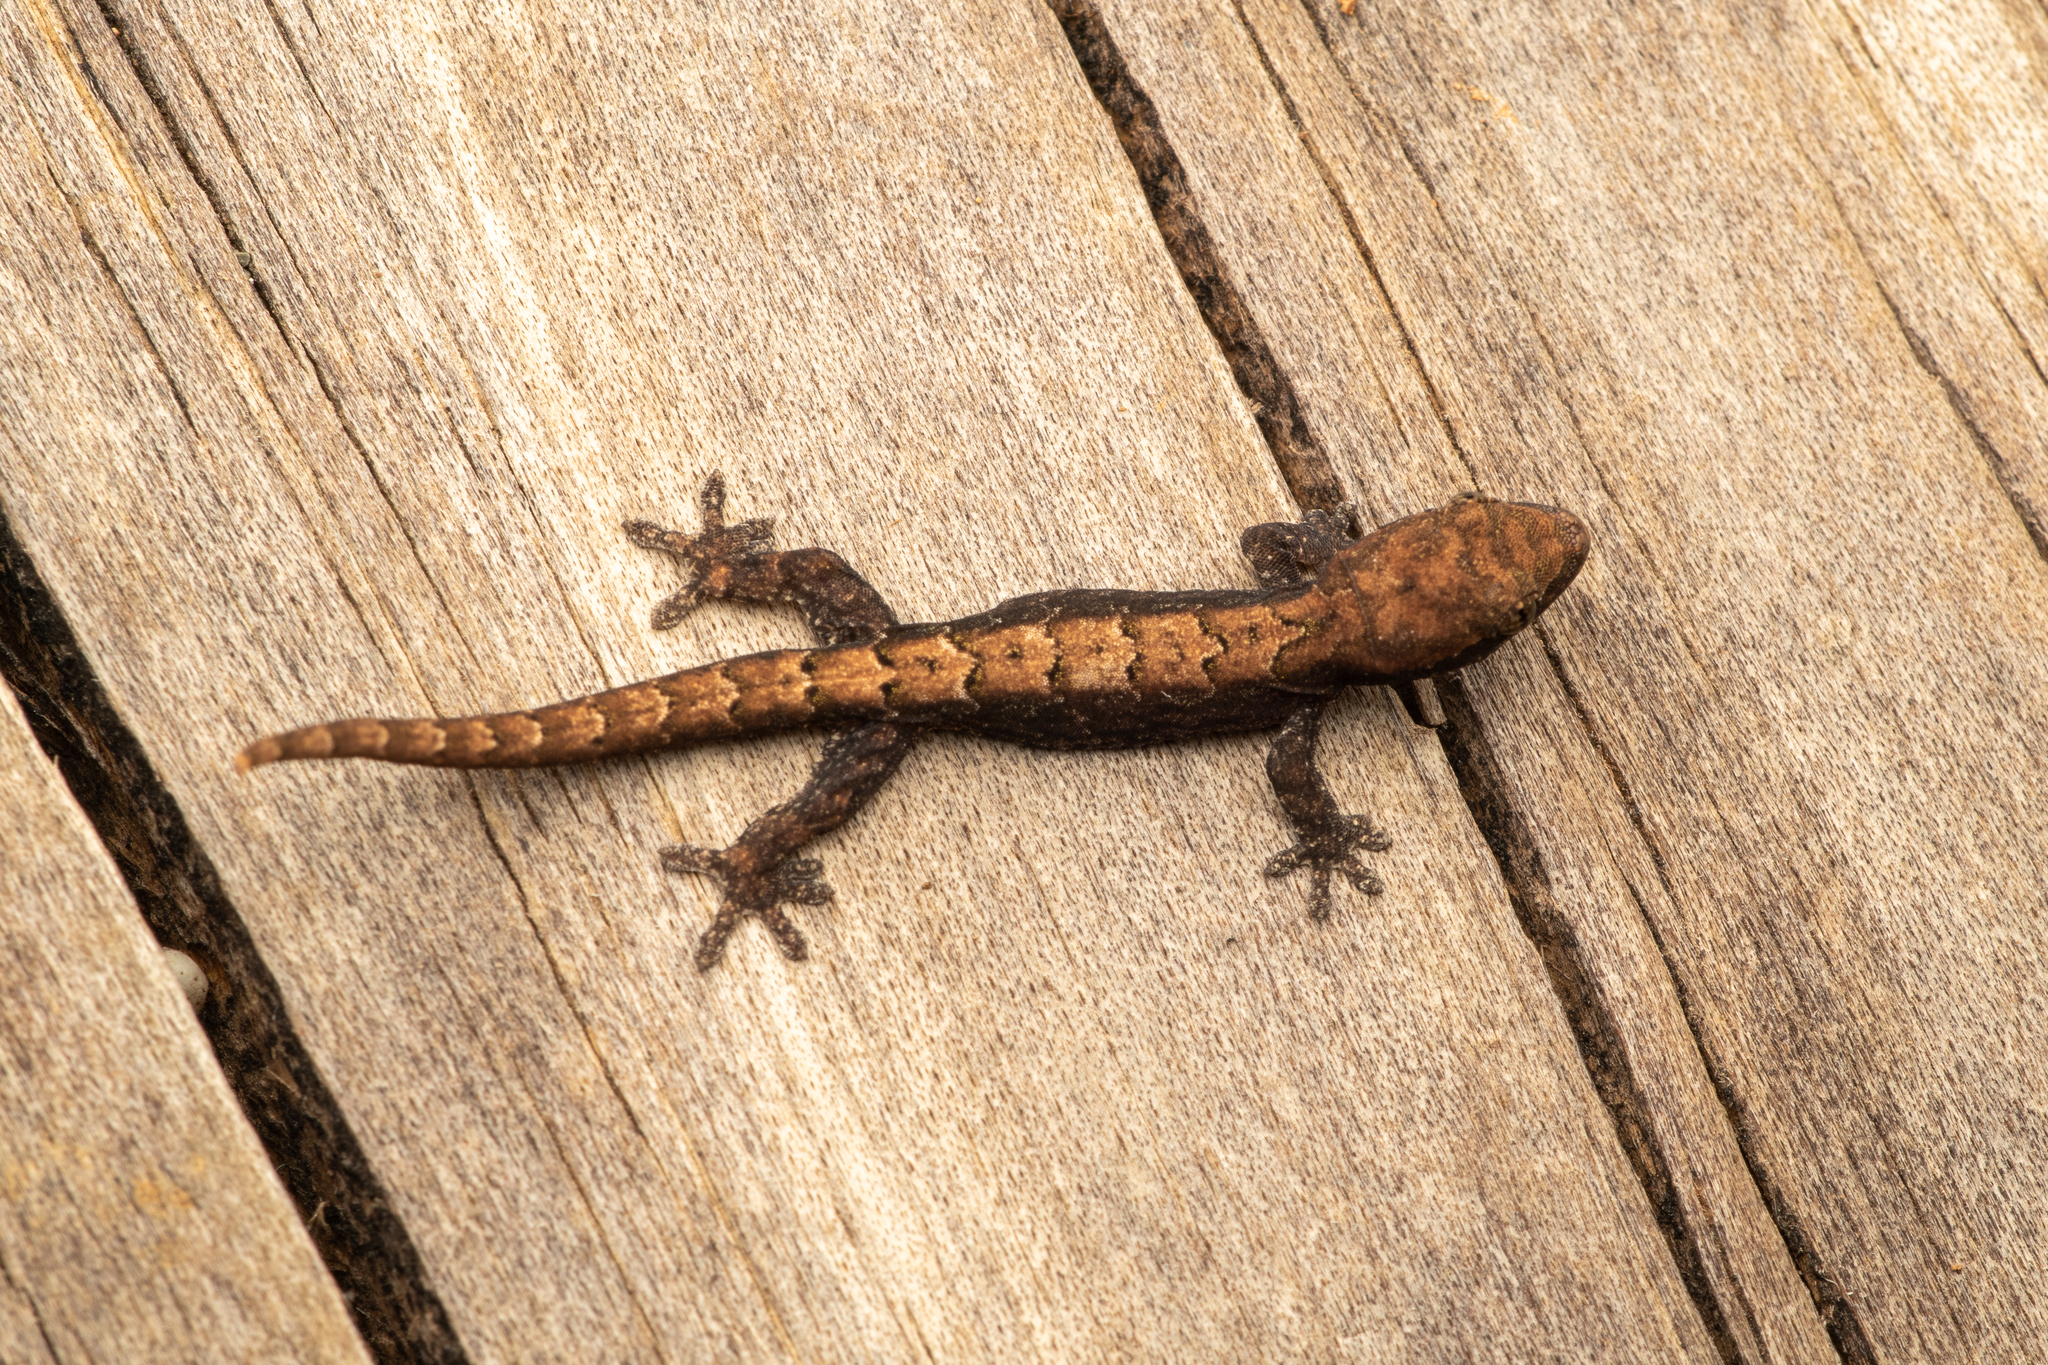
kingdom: Animalia
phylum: Chordata
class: Squamata
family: Gekkonidae
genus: Lepidodactylus
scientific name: Lepidodactylus lugubris
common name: Mourning gecko
